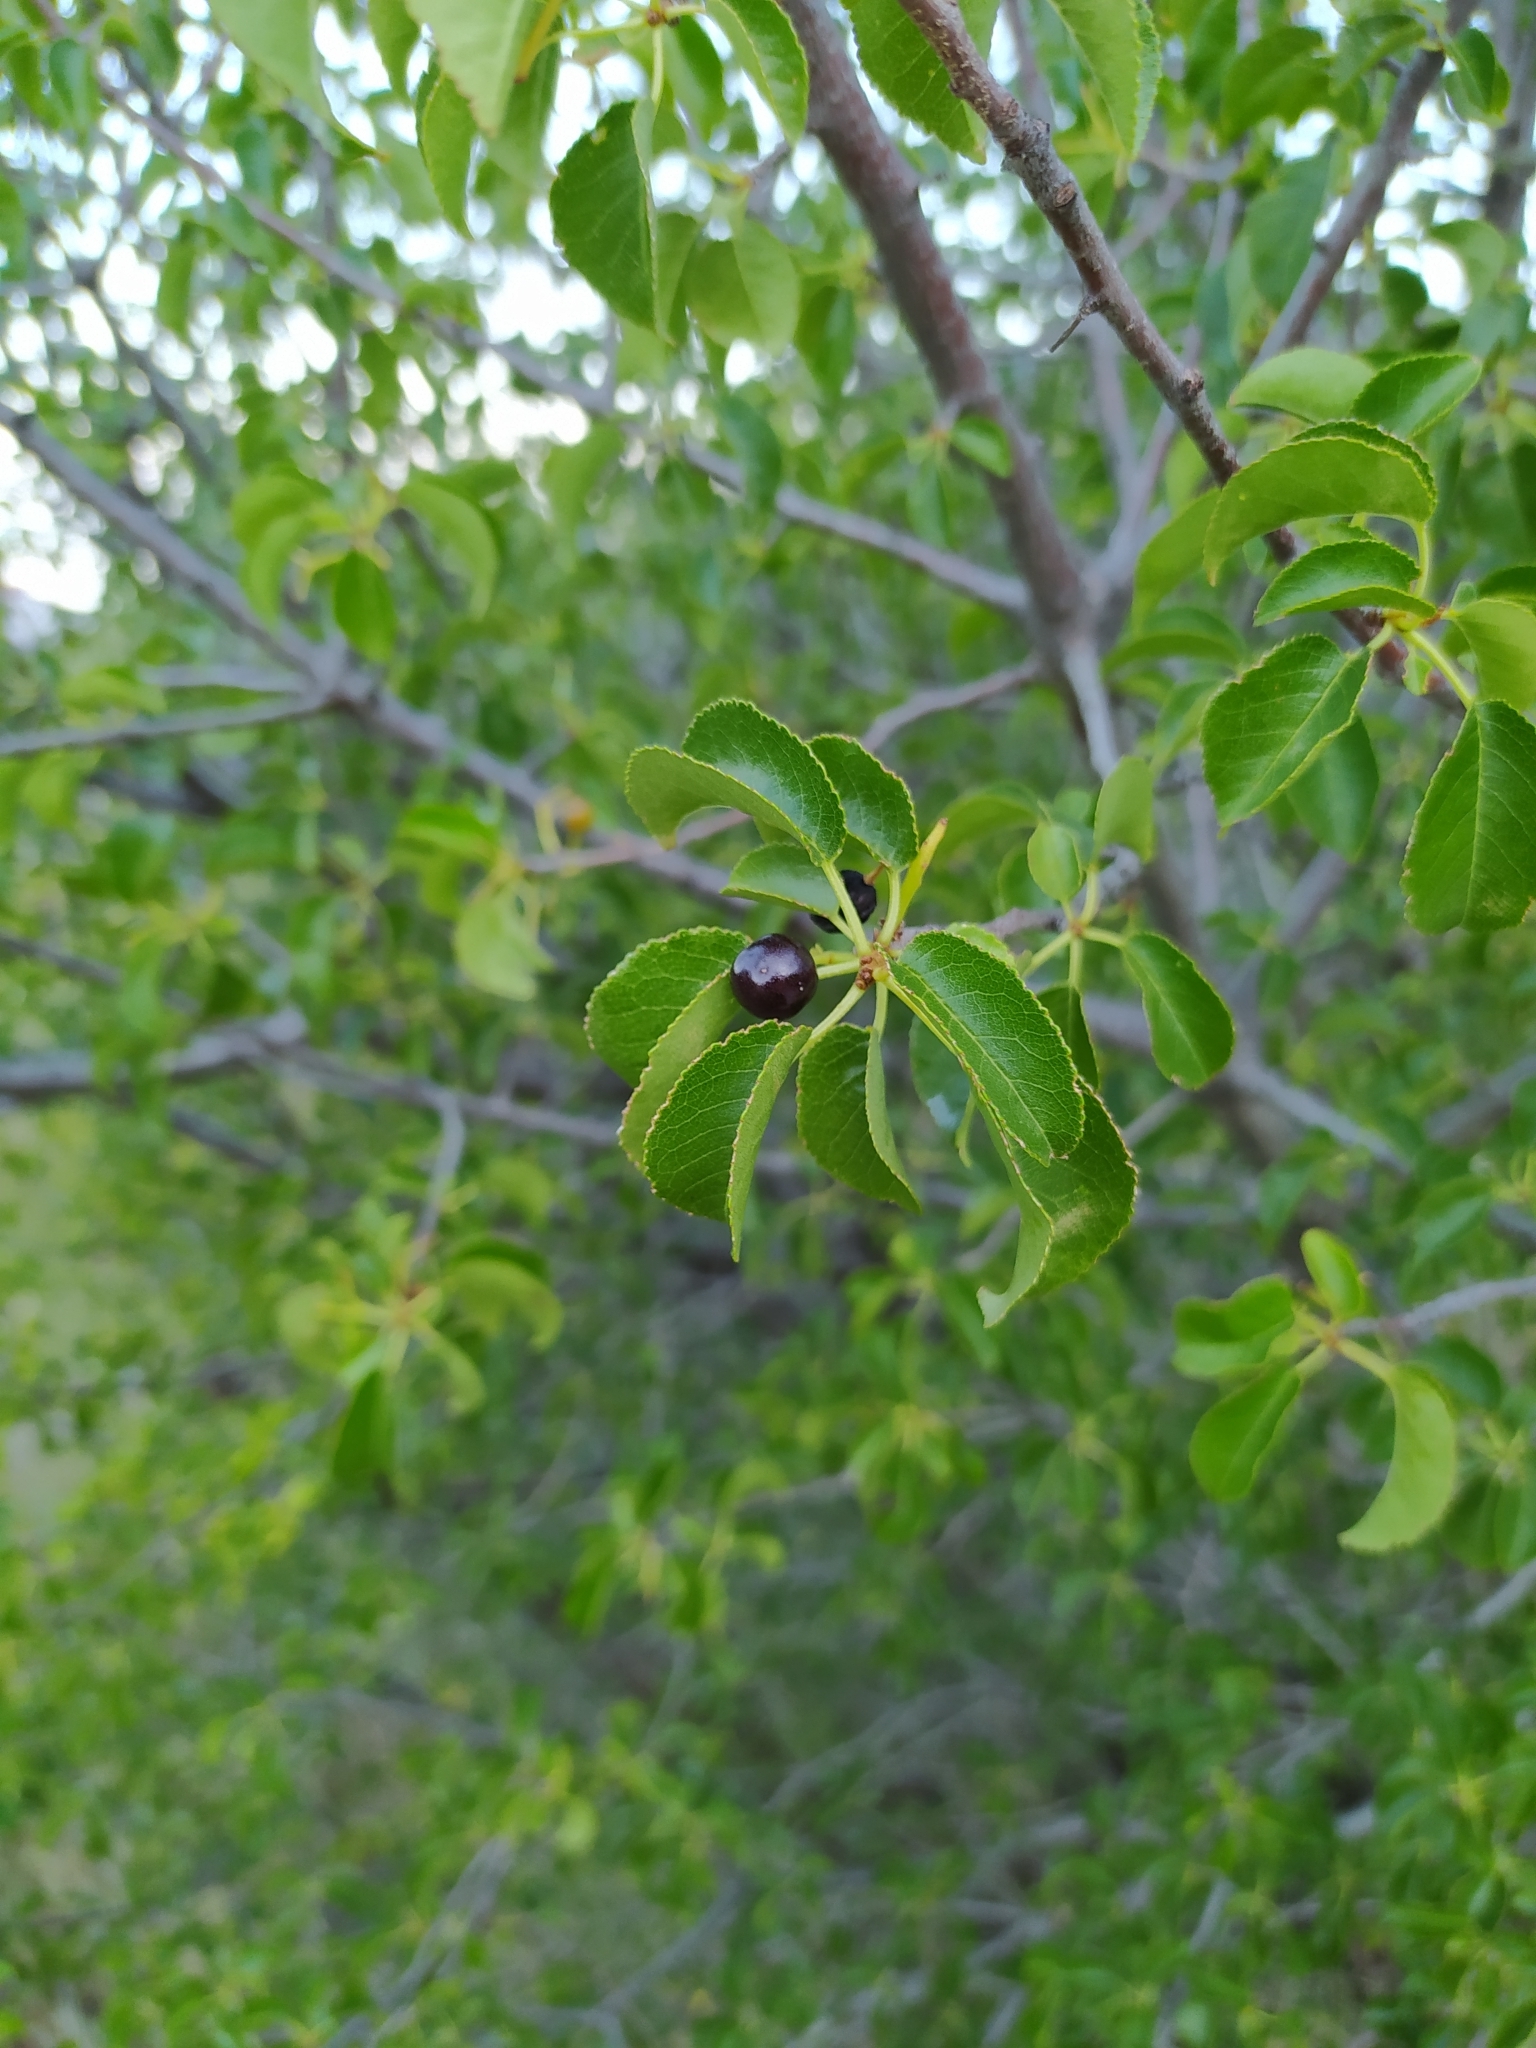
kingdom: Plantae
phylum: Tracheophyta
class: Magnoliopsida
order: Rosales
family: Rosaceae
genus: Prunus
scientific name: Prunus mahaleb
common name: Mahaleb cherry
